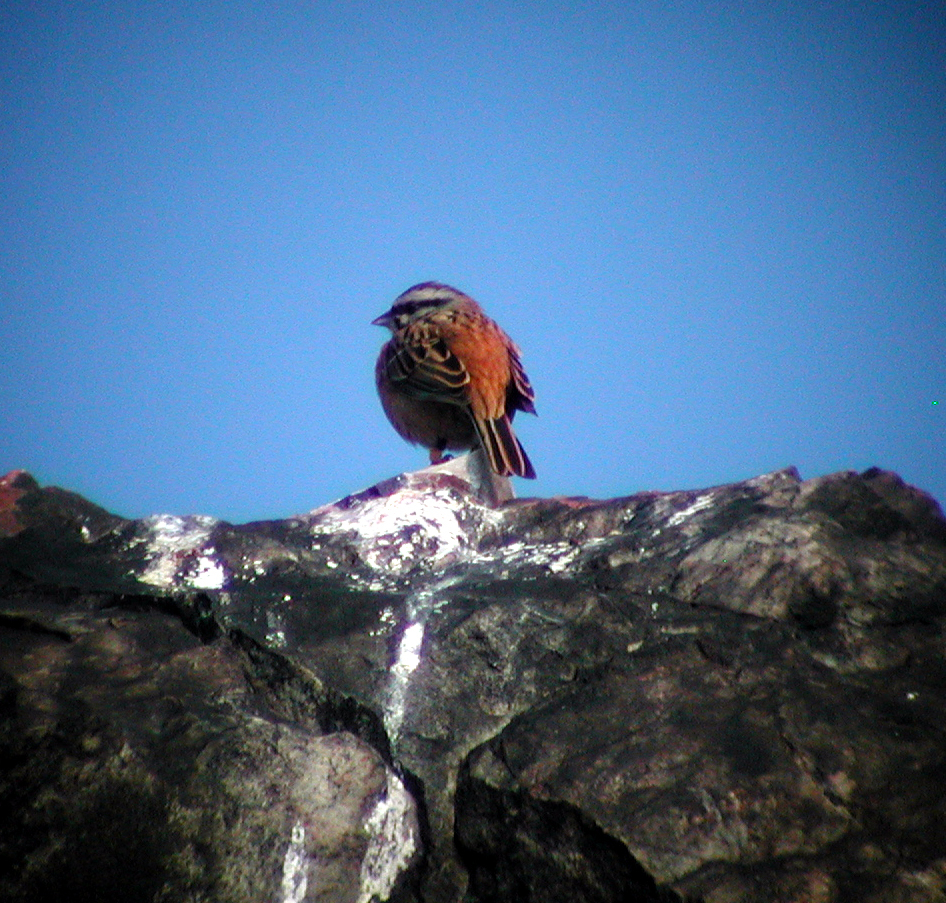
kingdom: Animalia
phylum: Chordata
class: Aves
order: Passeriformes
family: Emberizidae
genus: Emberiza
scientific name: Emberiza cia
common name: Rock bunting
